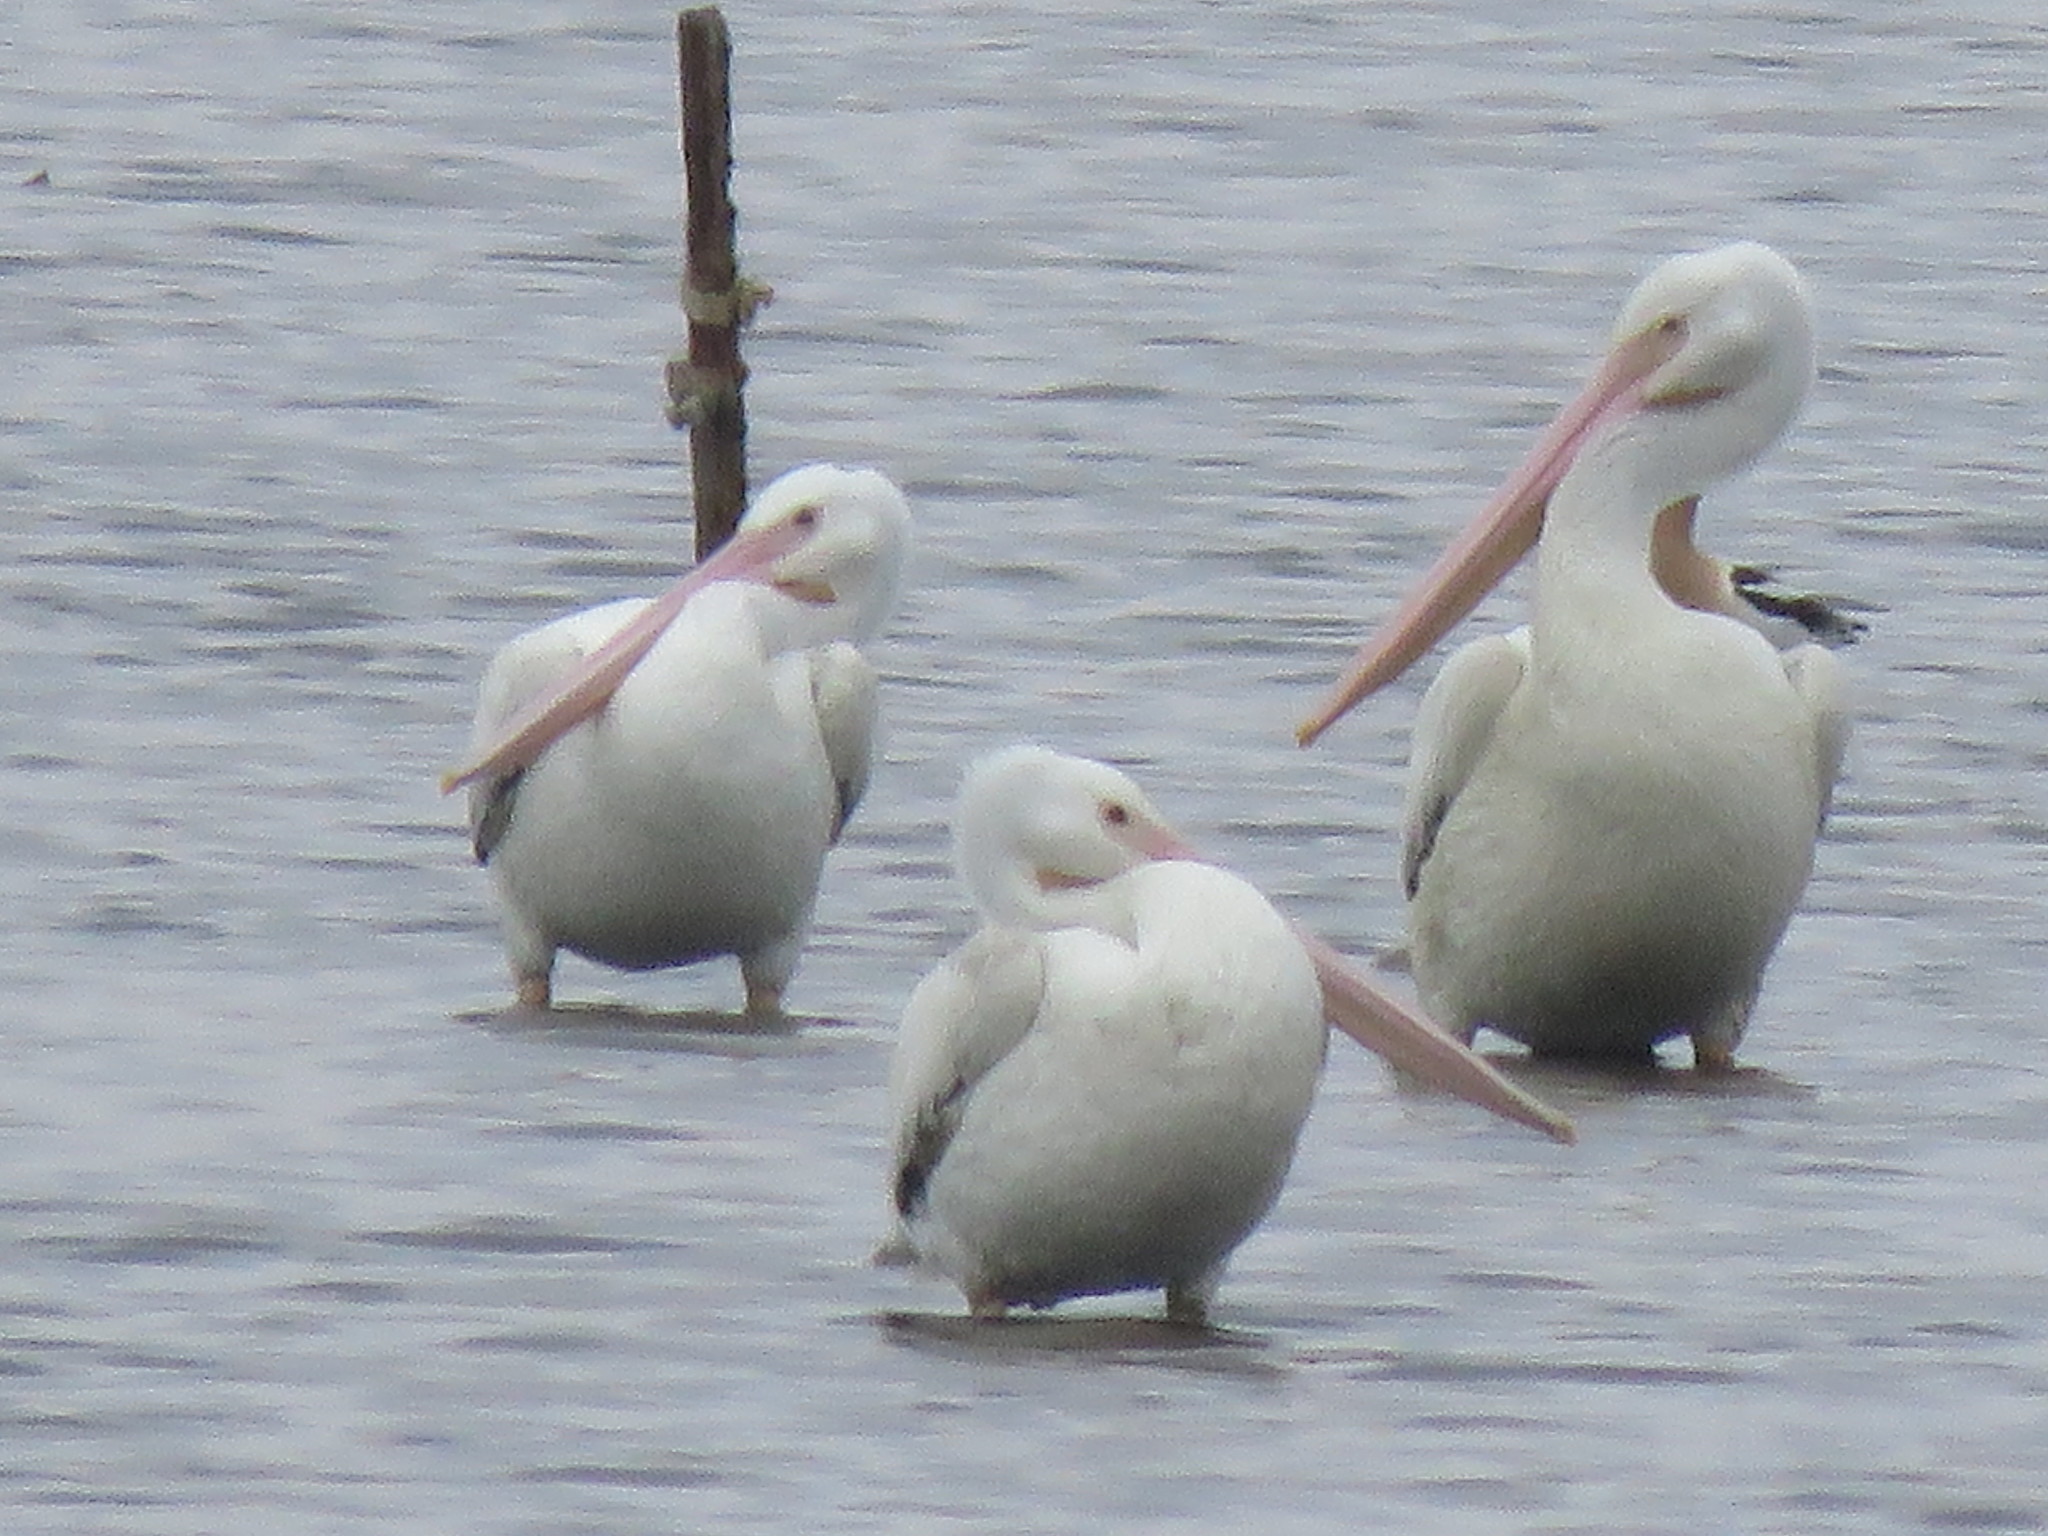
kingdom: Animalia
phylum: Chordata
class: Aves
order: Pelecaniformes
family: Pelecanidae
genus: Pelecanus
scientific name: Pelecanus erythrorhynchos
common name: American white pelican
